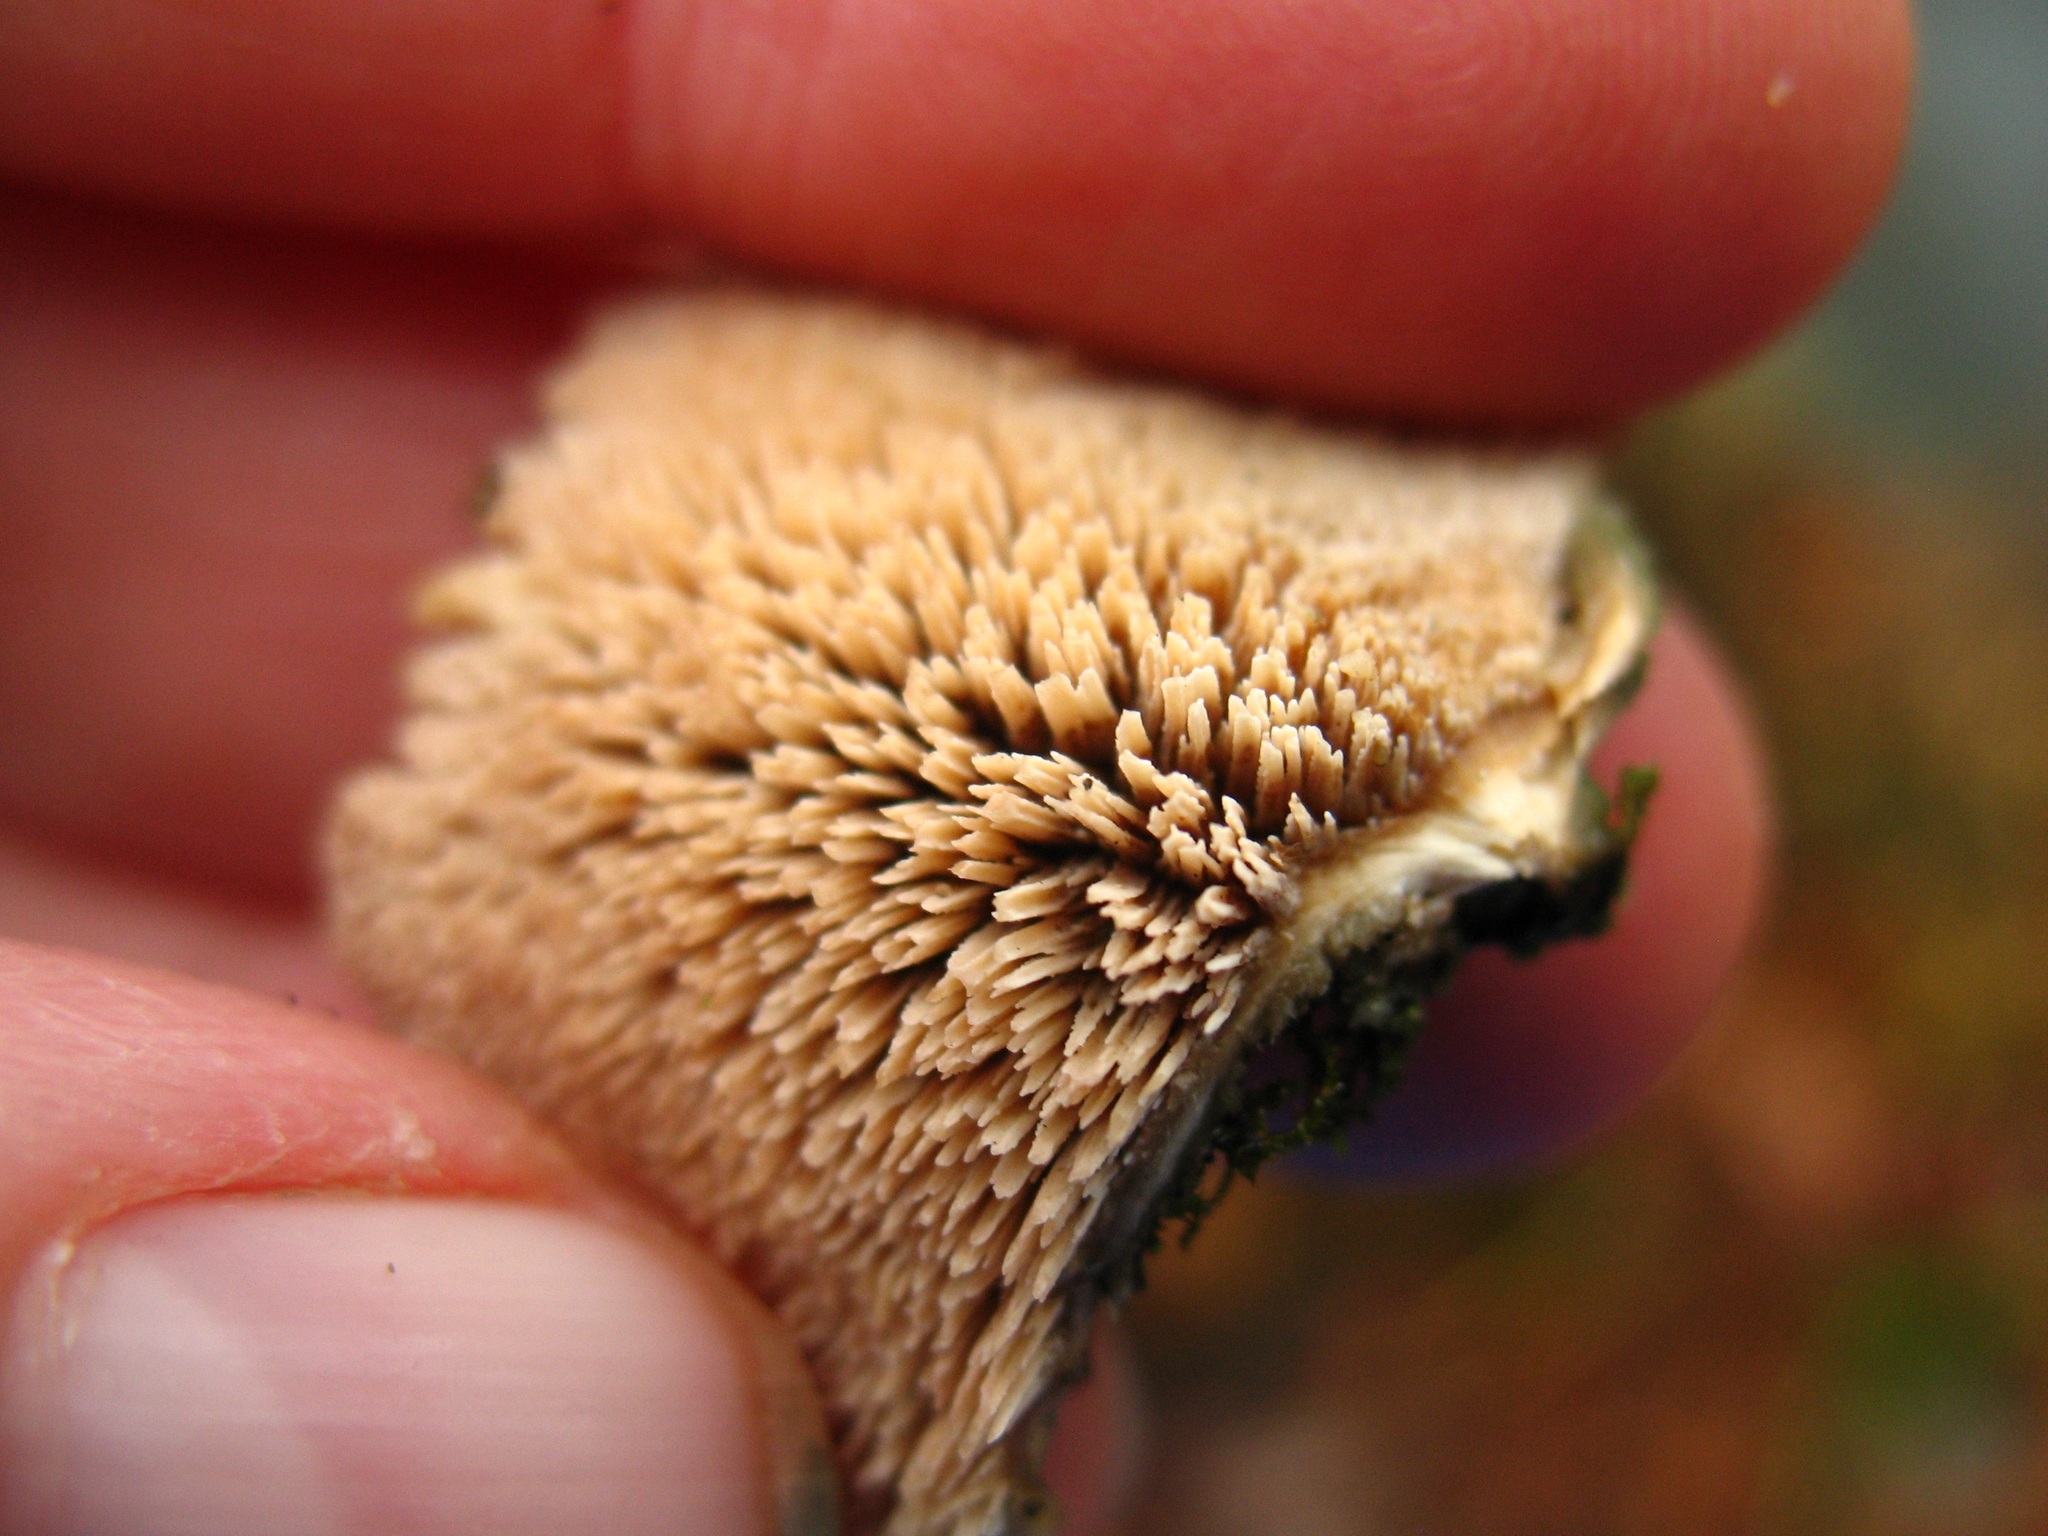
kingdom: Fungi
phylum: Basidiomycota
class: Agaricomycetes
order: Hymenochaetales
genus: Trichaptum
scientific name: Trichaptum biforme
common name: Violet-toothed polypore
